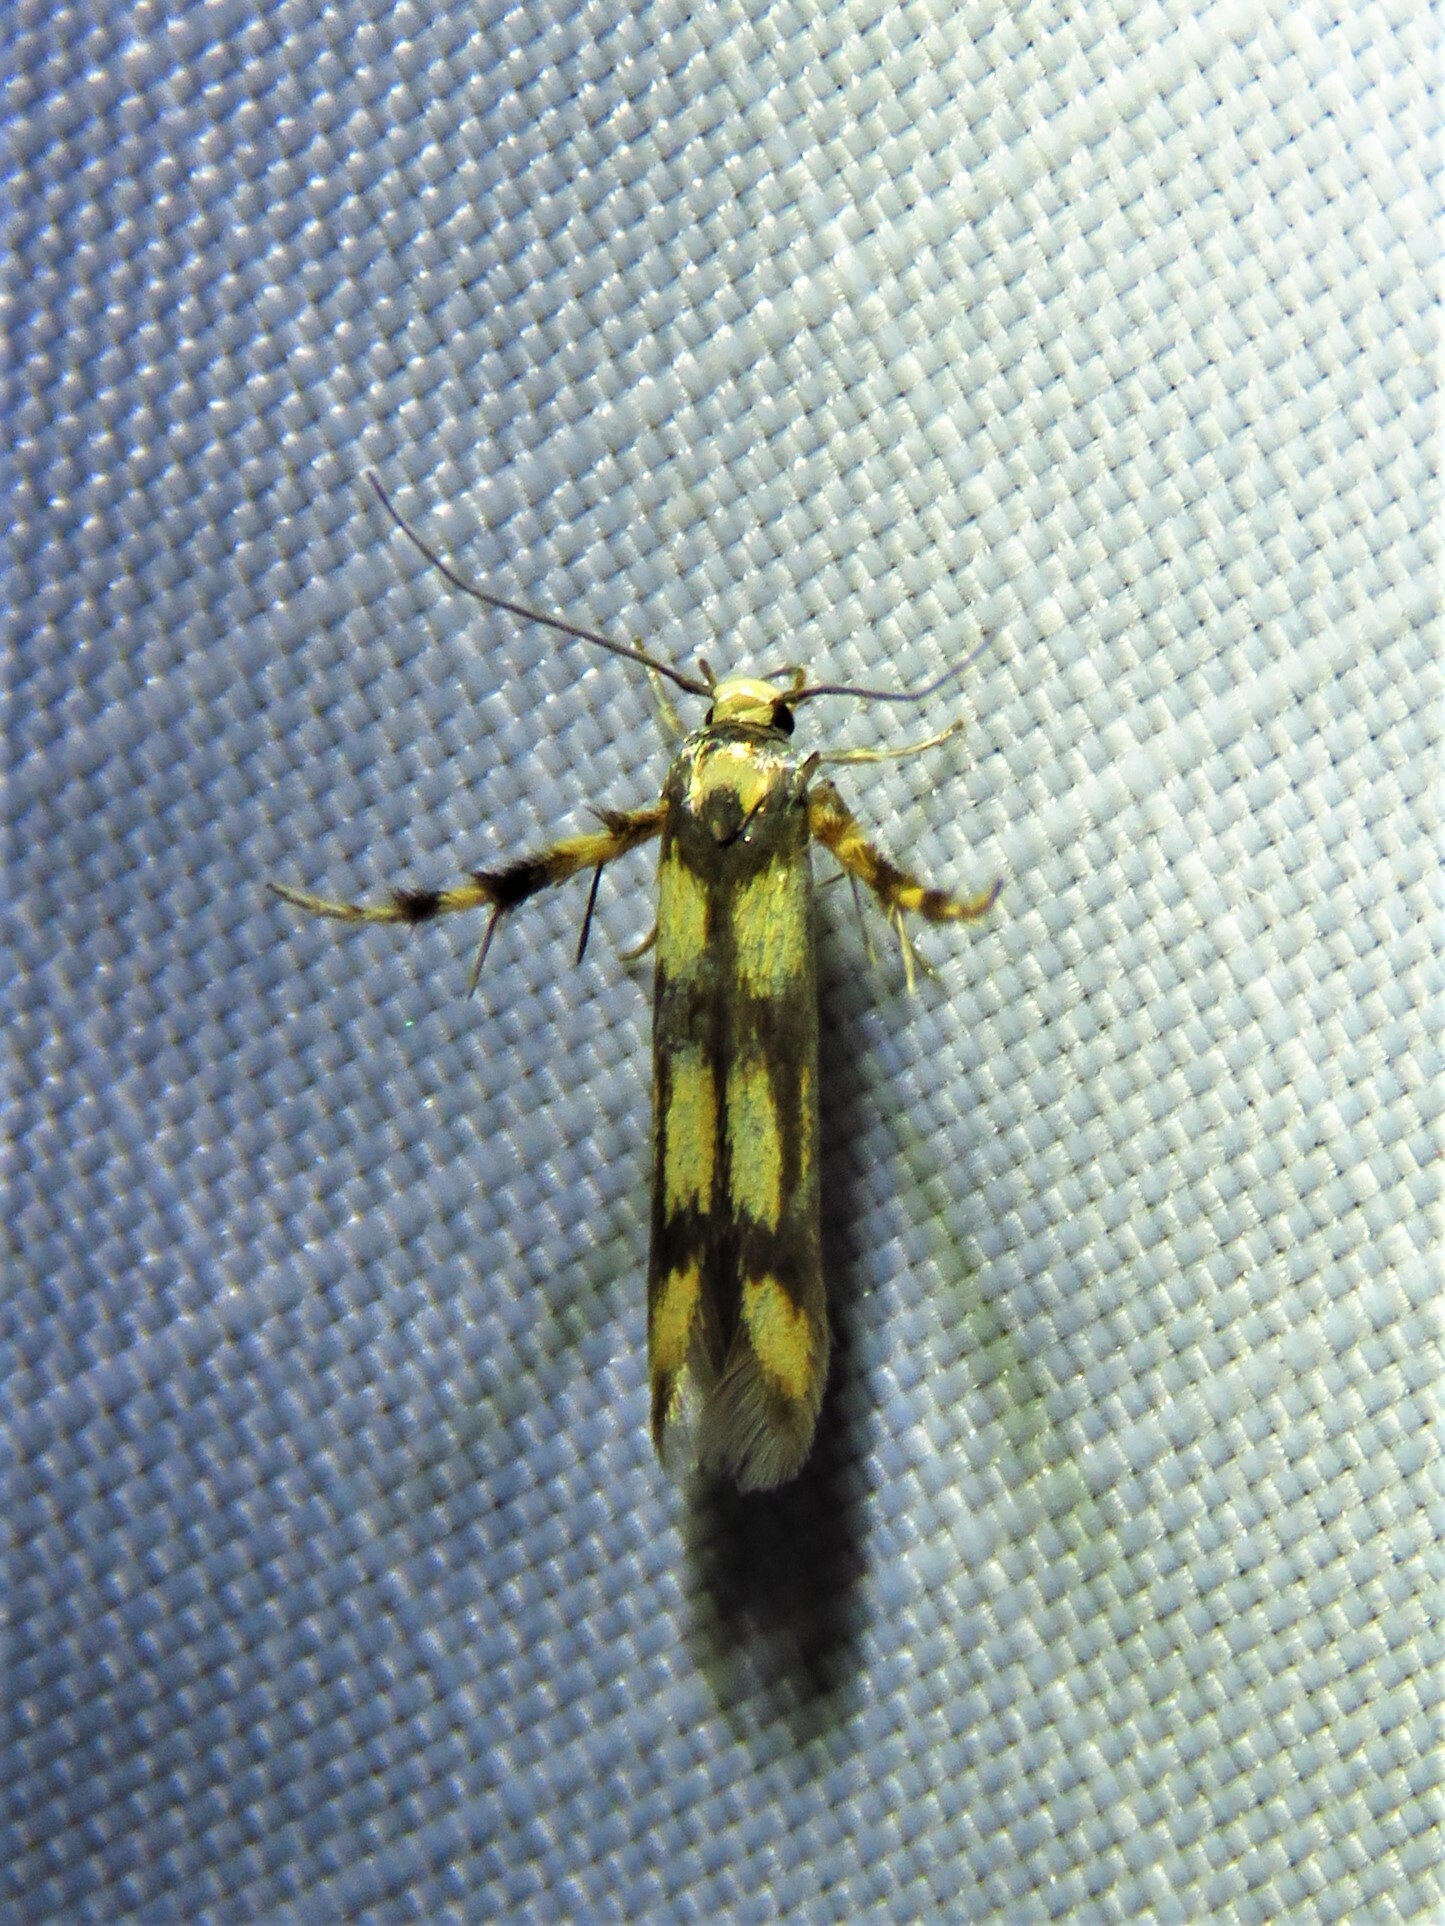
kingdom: Animalia
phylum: Arthropoda
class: Insecta
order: Lepidoptera
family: Stathmopodidae
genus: Stathmopoda
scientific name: Stathmopoda pedella
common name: Alder signal
